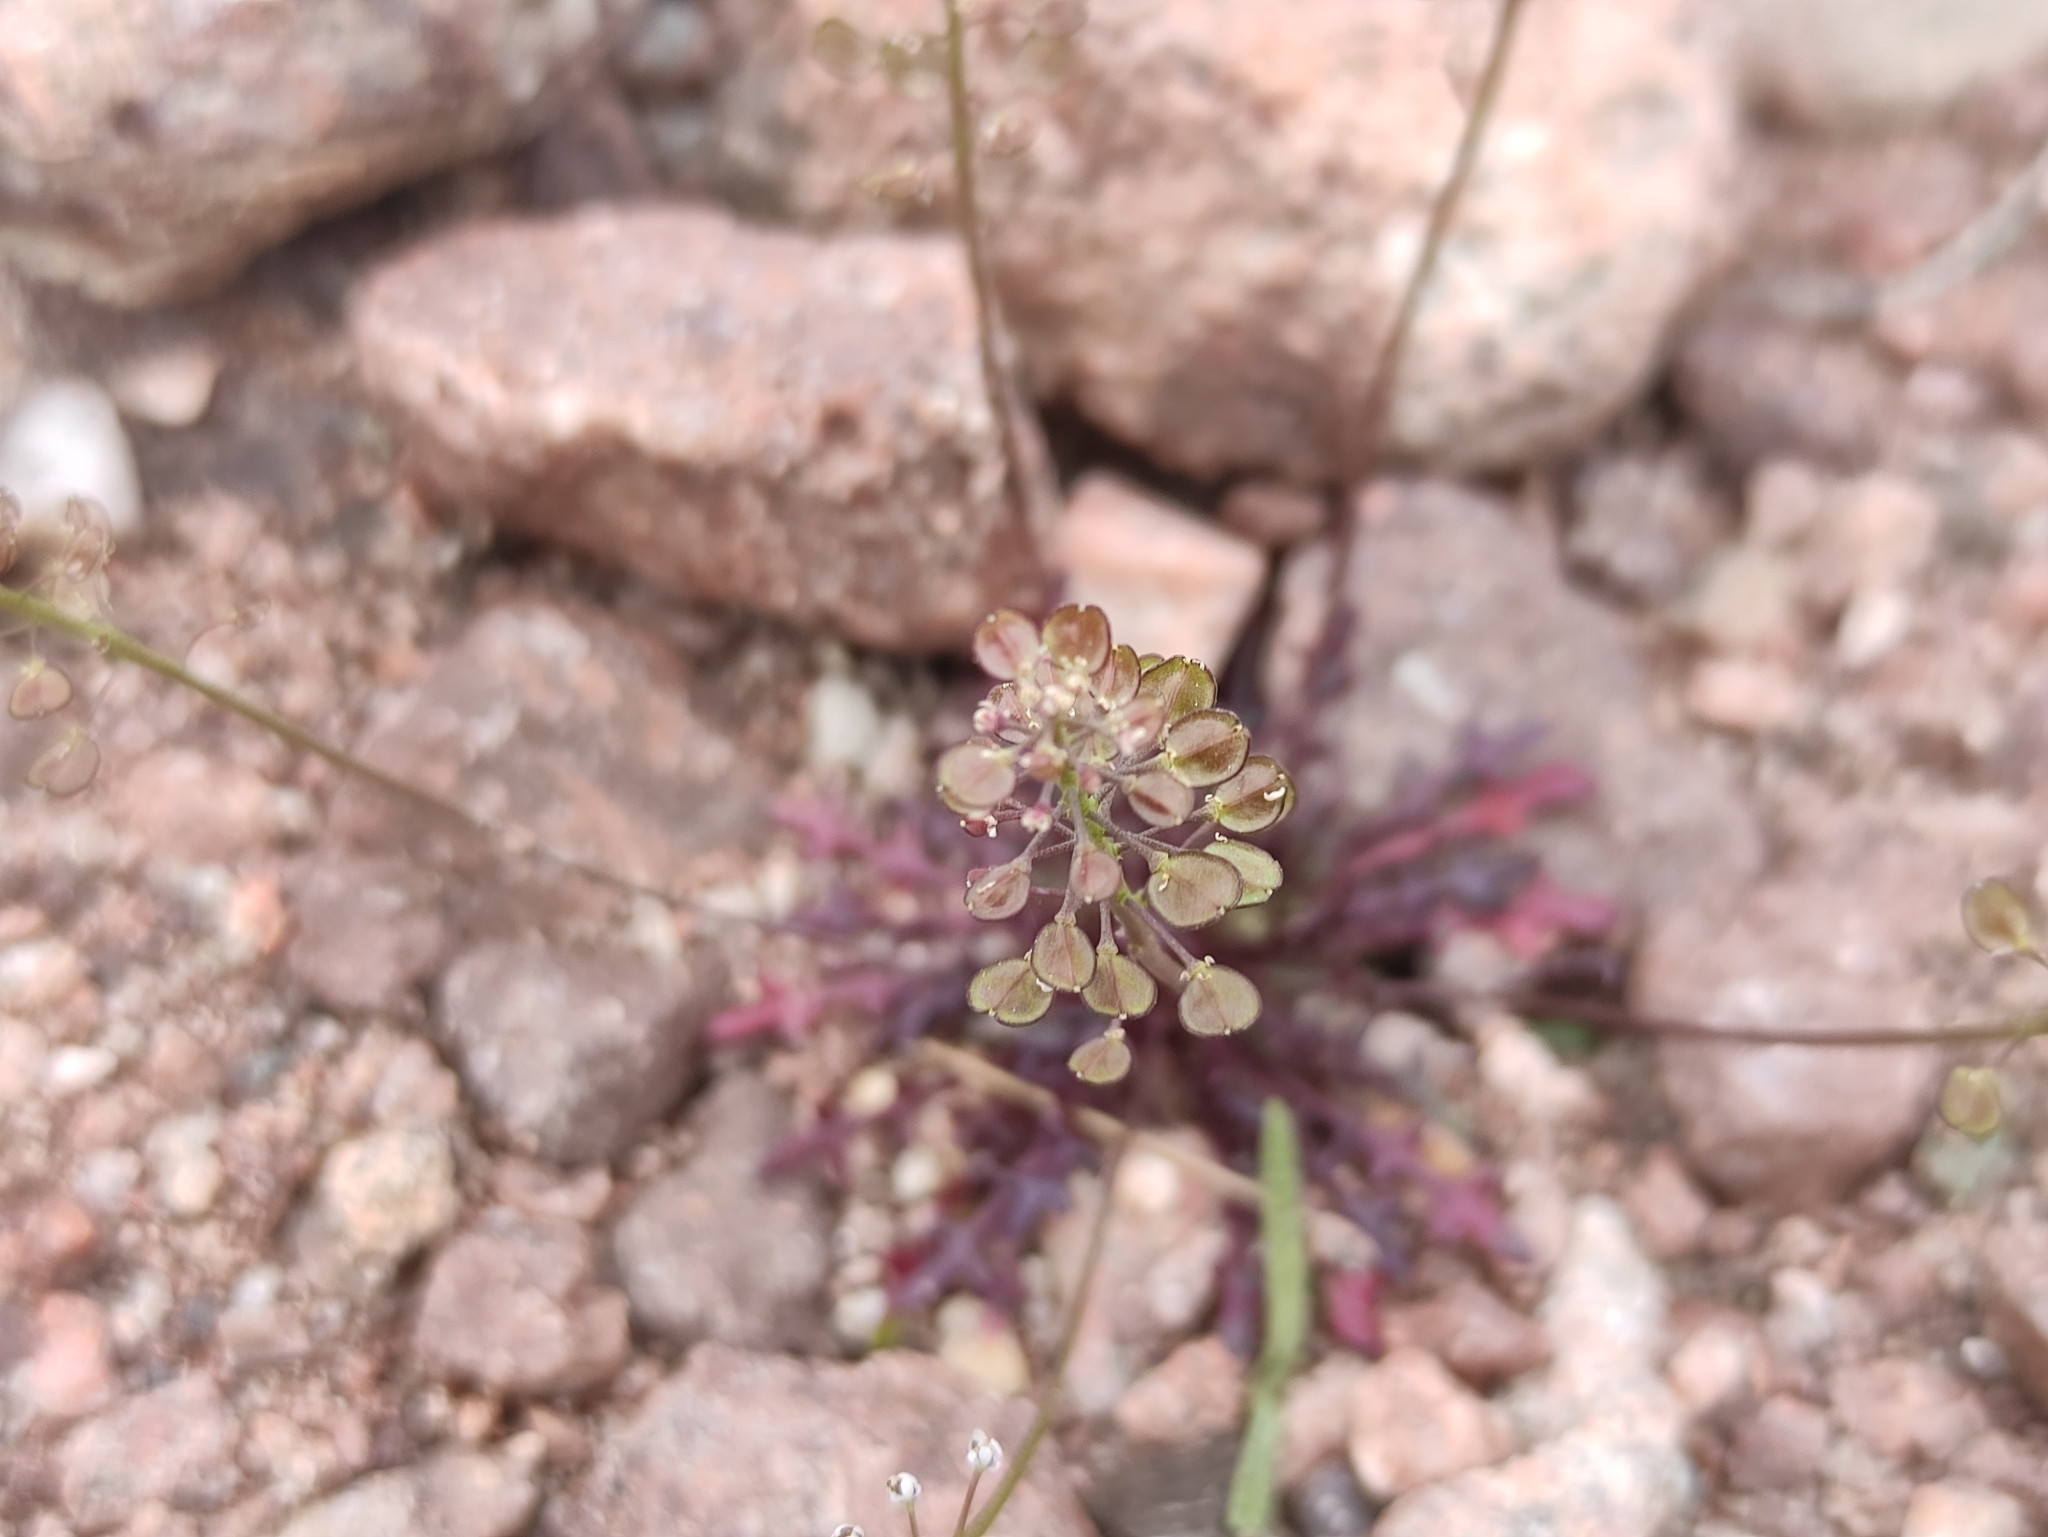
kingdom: Plantae
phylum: Tracheophyta
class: Magnoliopsida
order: Brassicales
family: Brassicaceae
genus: Teesdalia
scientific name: Teesdalia coronopifolia
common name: Lesser shepherdscress
